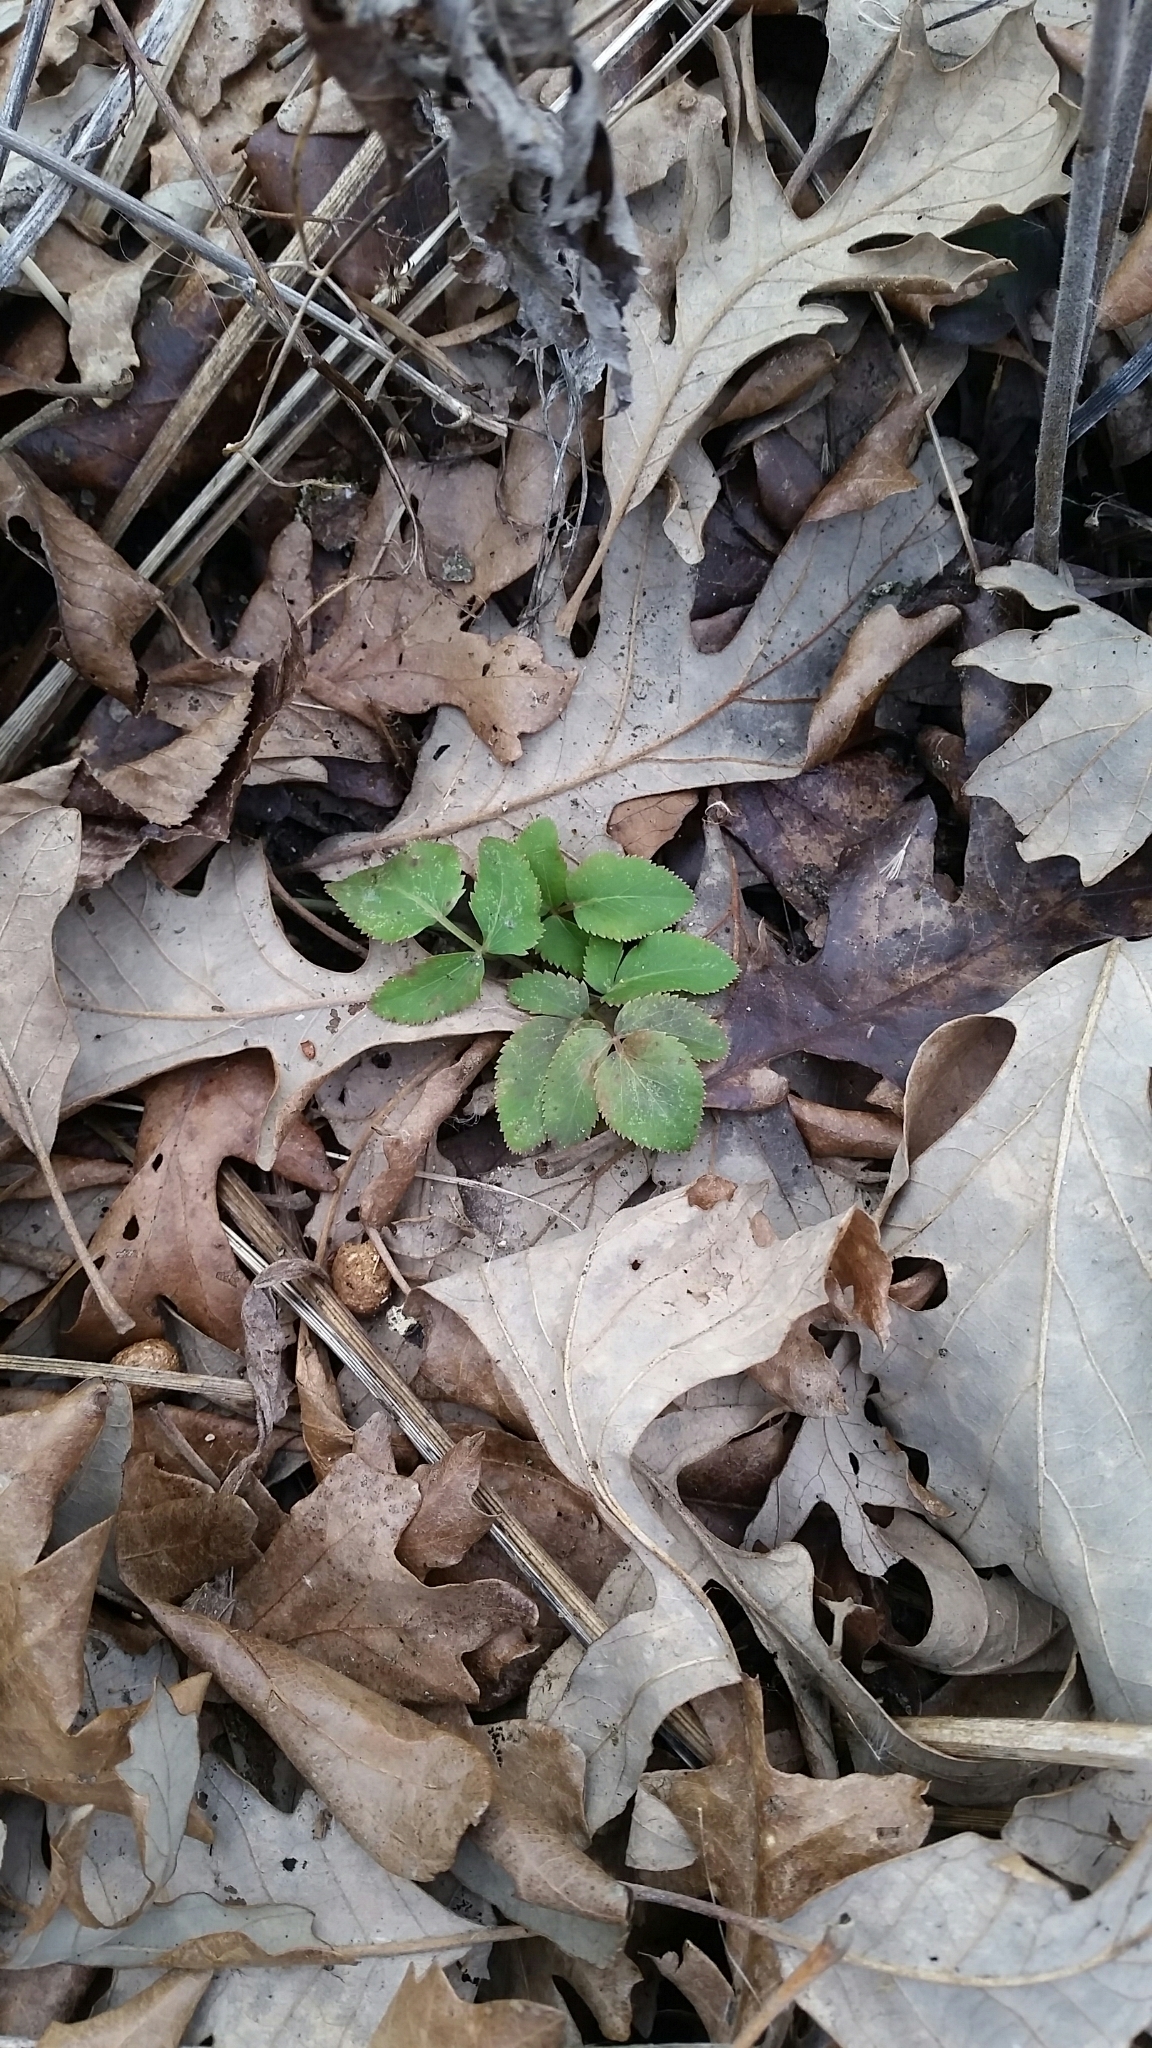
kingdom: Plantae
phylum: Tracheophyta
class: Magnoliopsida
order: Apiales
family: Apiaceae
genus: Zizia
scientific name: Zizia aurea
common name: Golden alexanders
